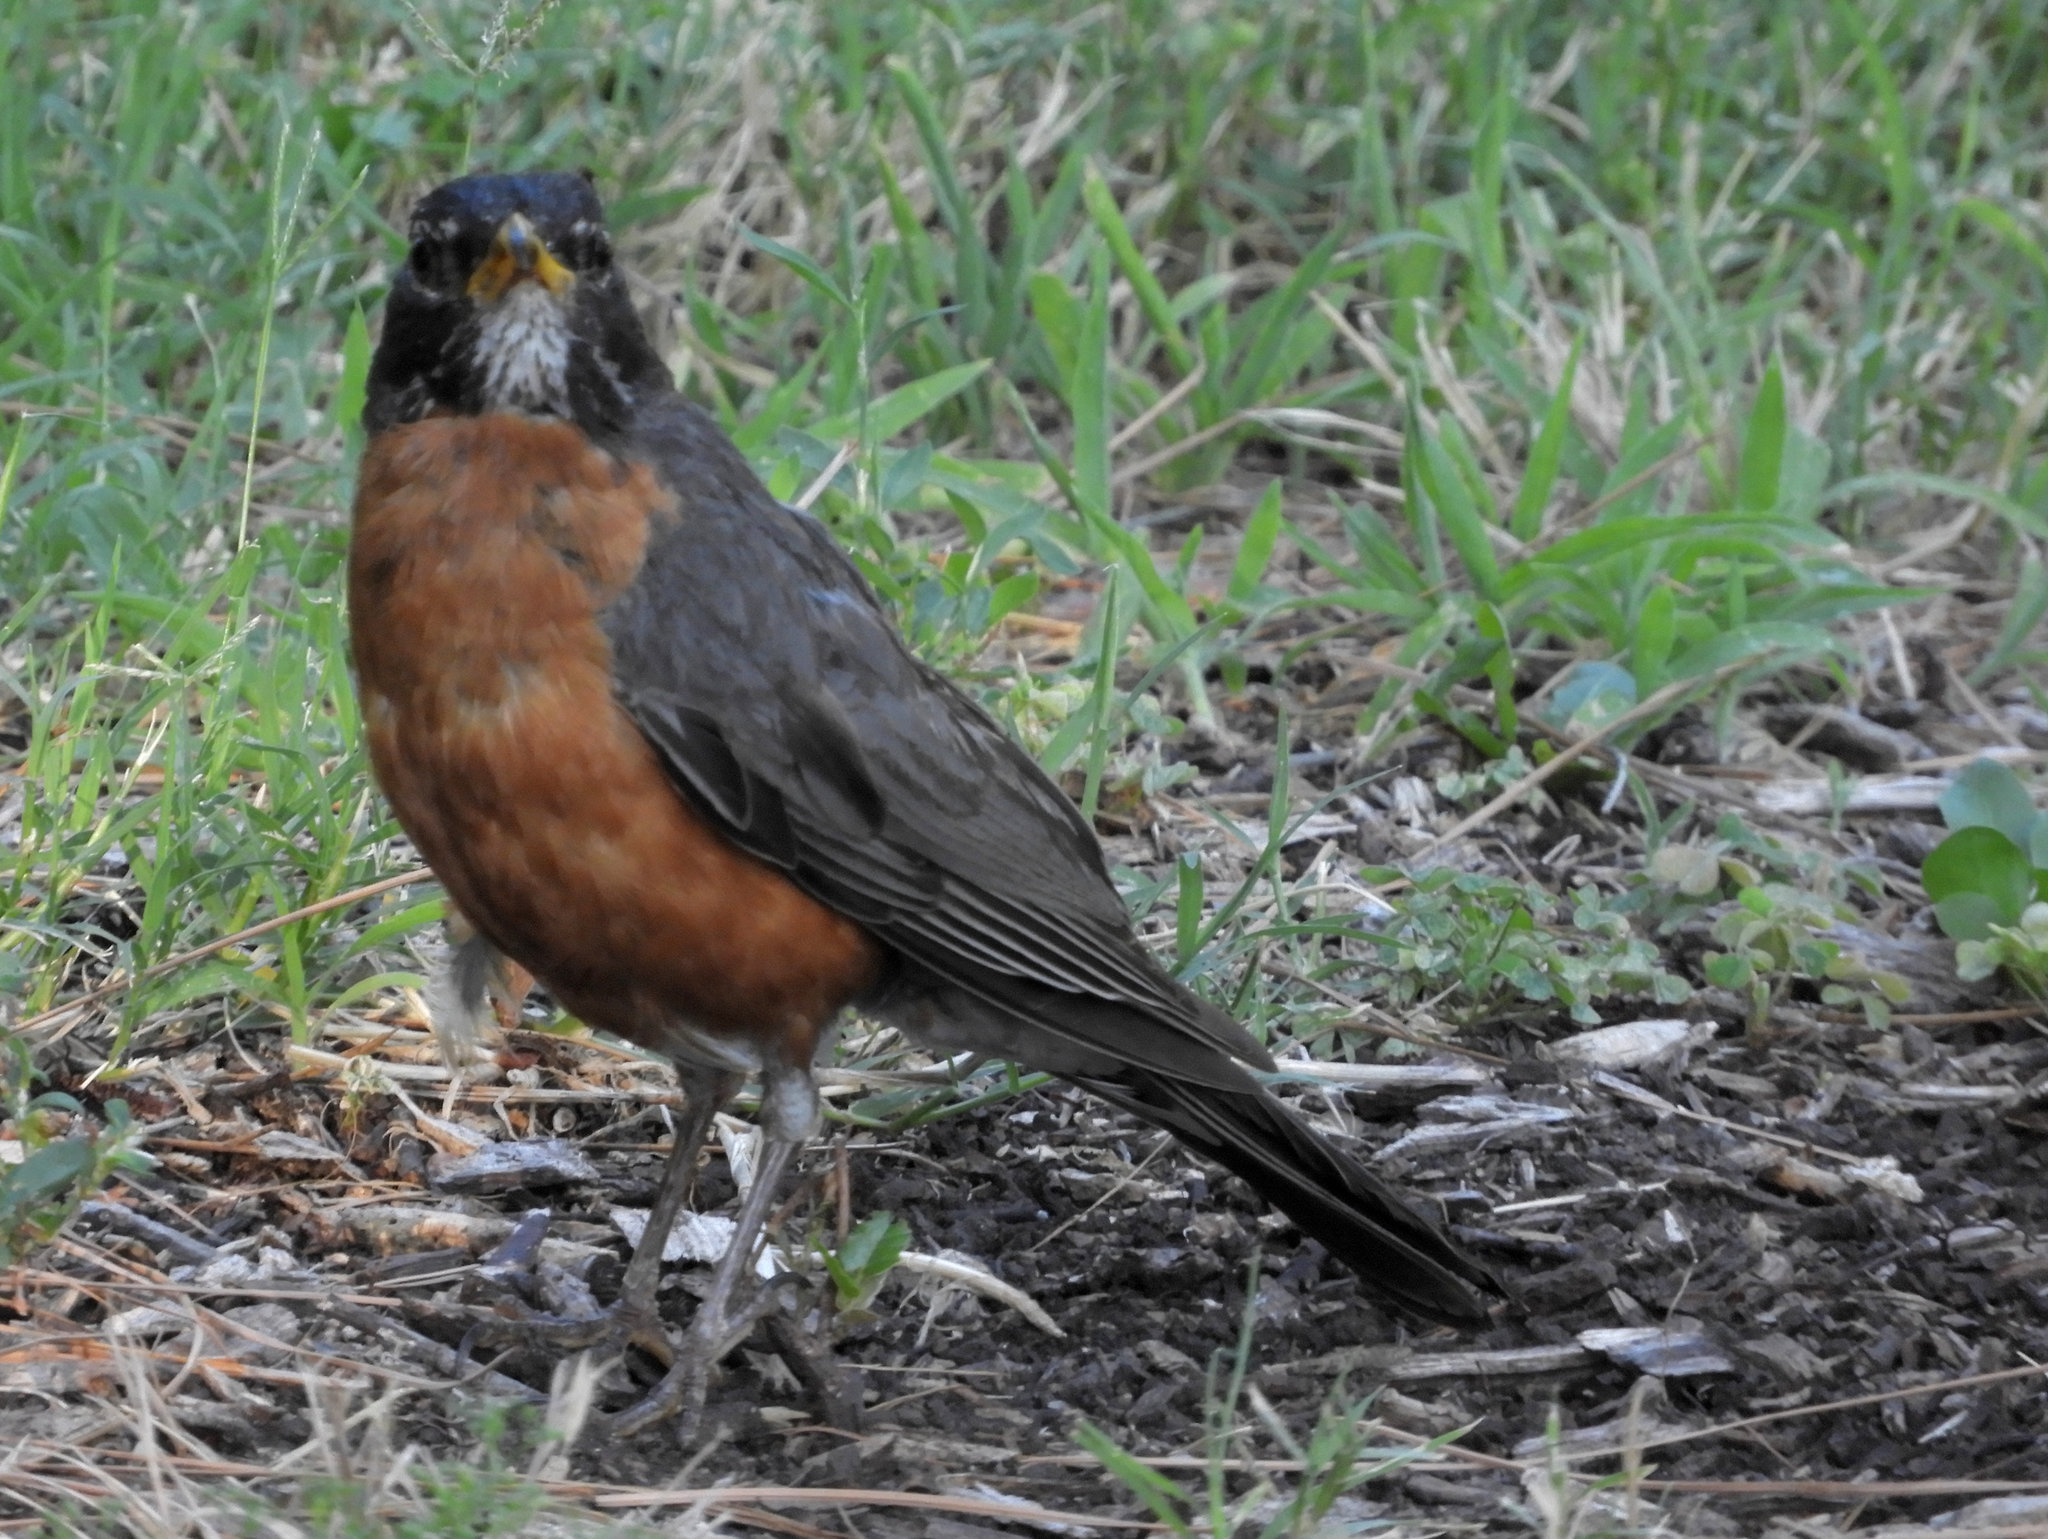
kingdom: Animalia
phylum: Chordata
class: Aves
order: Passeriformes
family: Turdidae
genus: Turdus
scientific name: Turdus migratorius
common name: American robin
